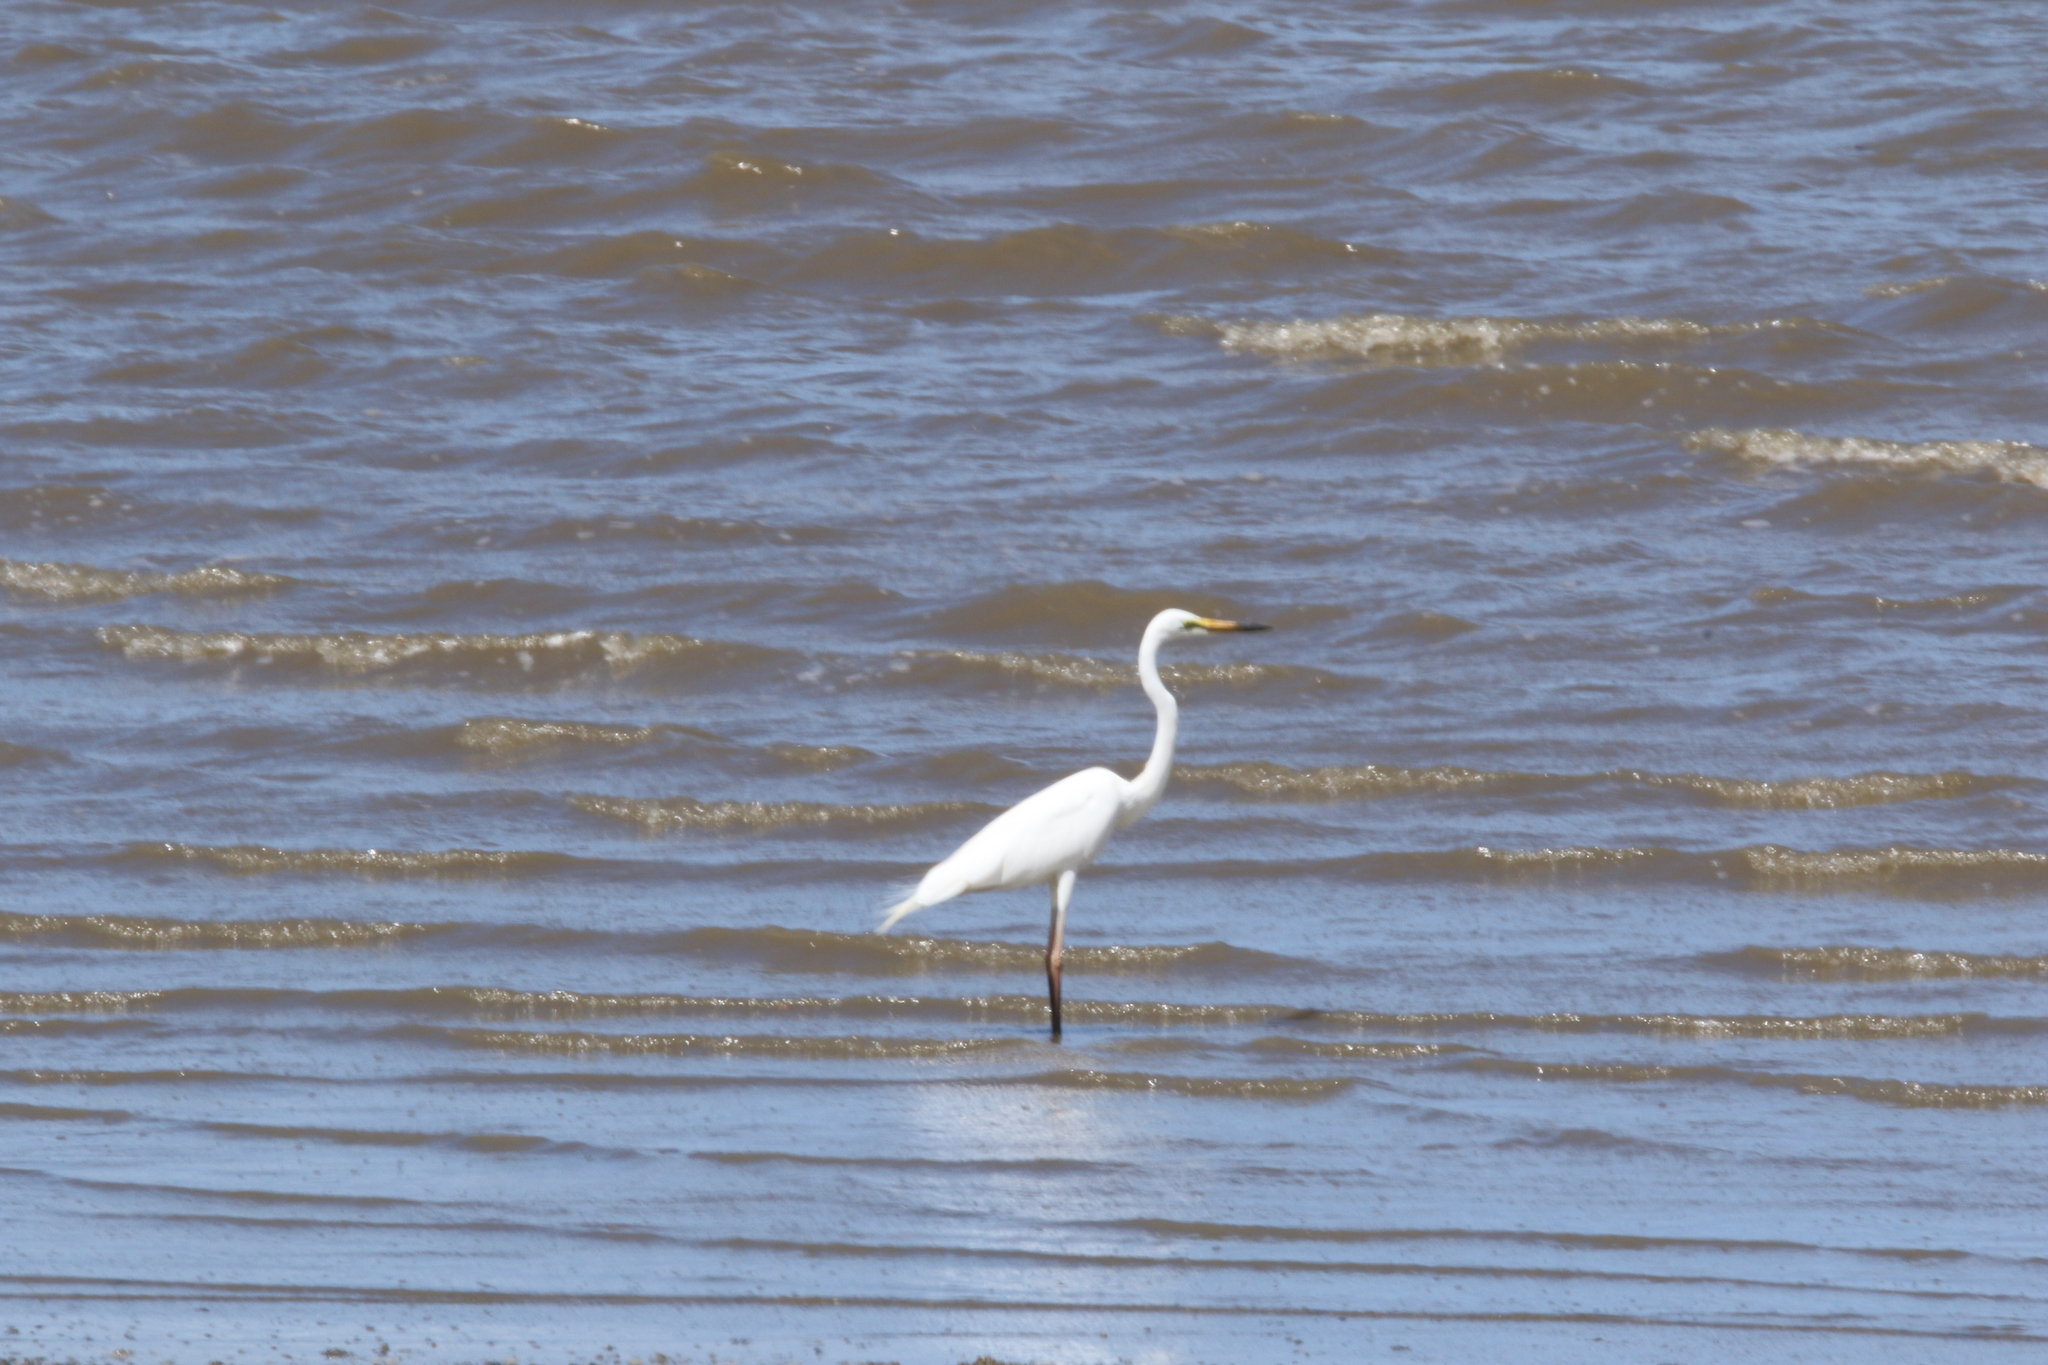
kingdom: Animalia
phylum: Chordata
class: Aves
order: Pelecaniformes
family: Ardeidae
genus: Ardea
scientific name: Ardea modesta
